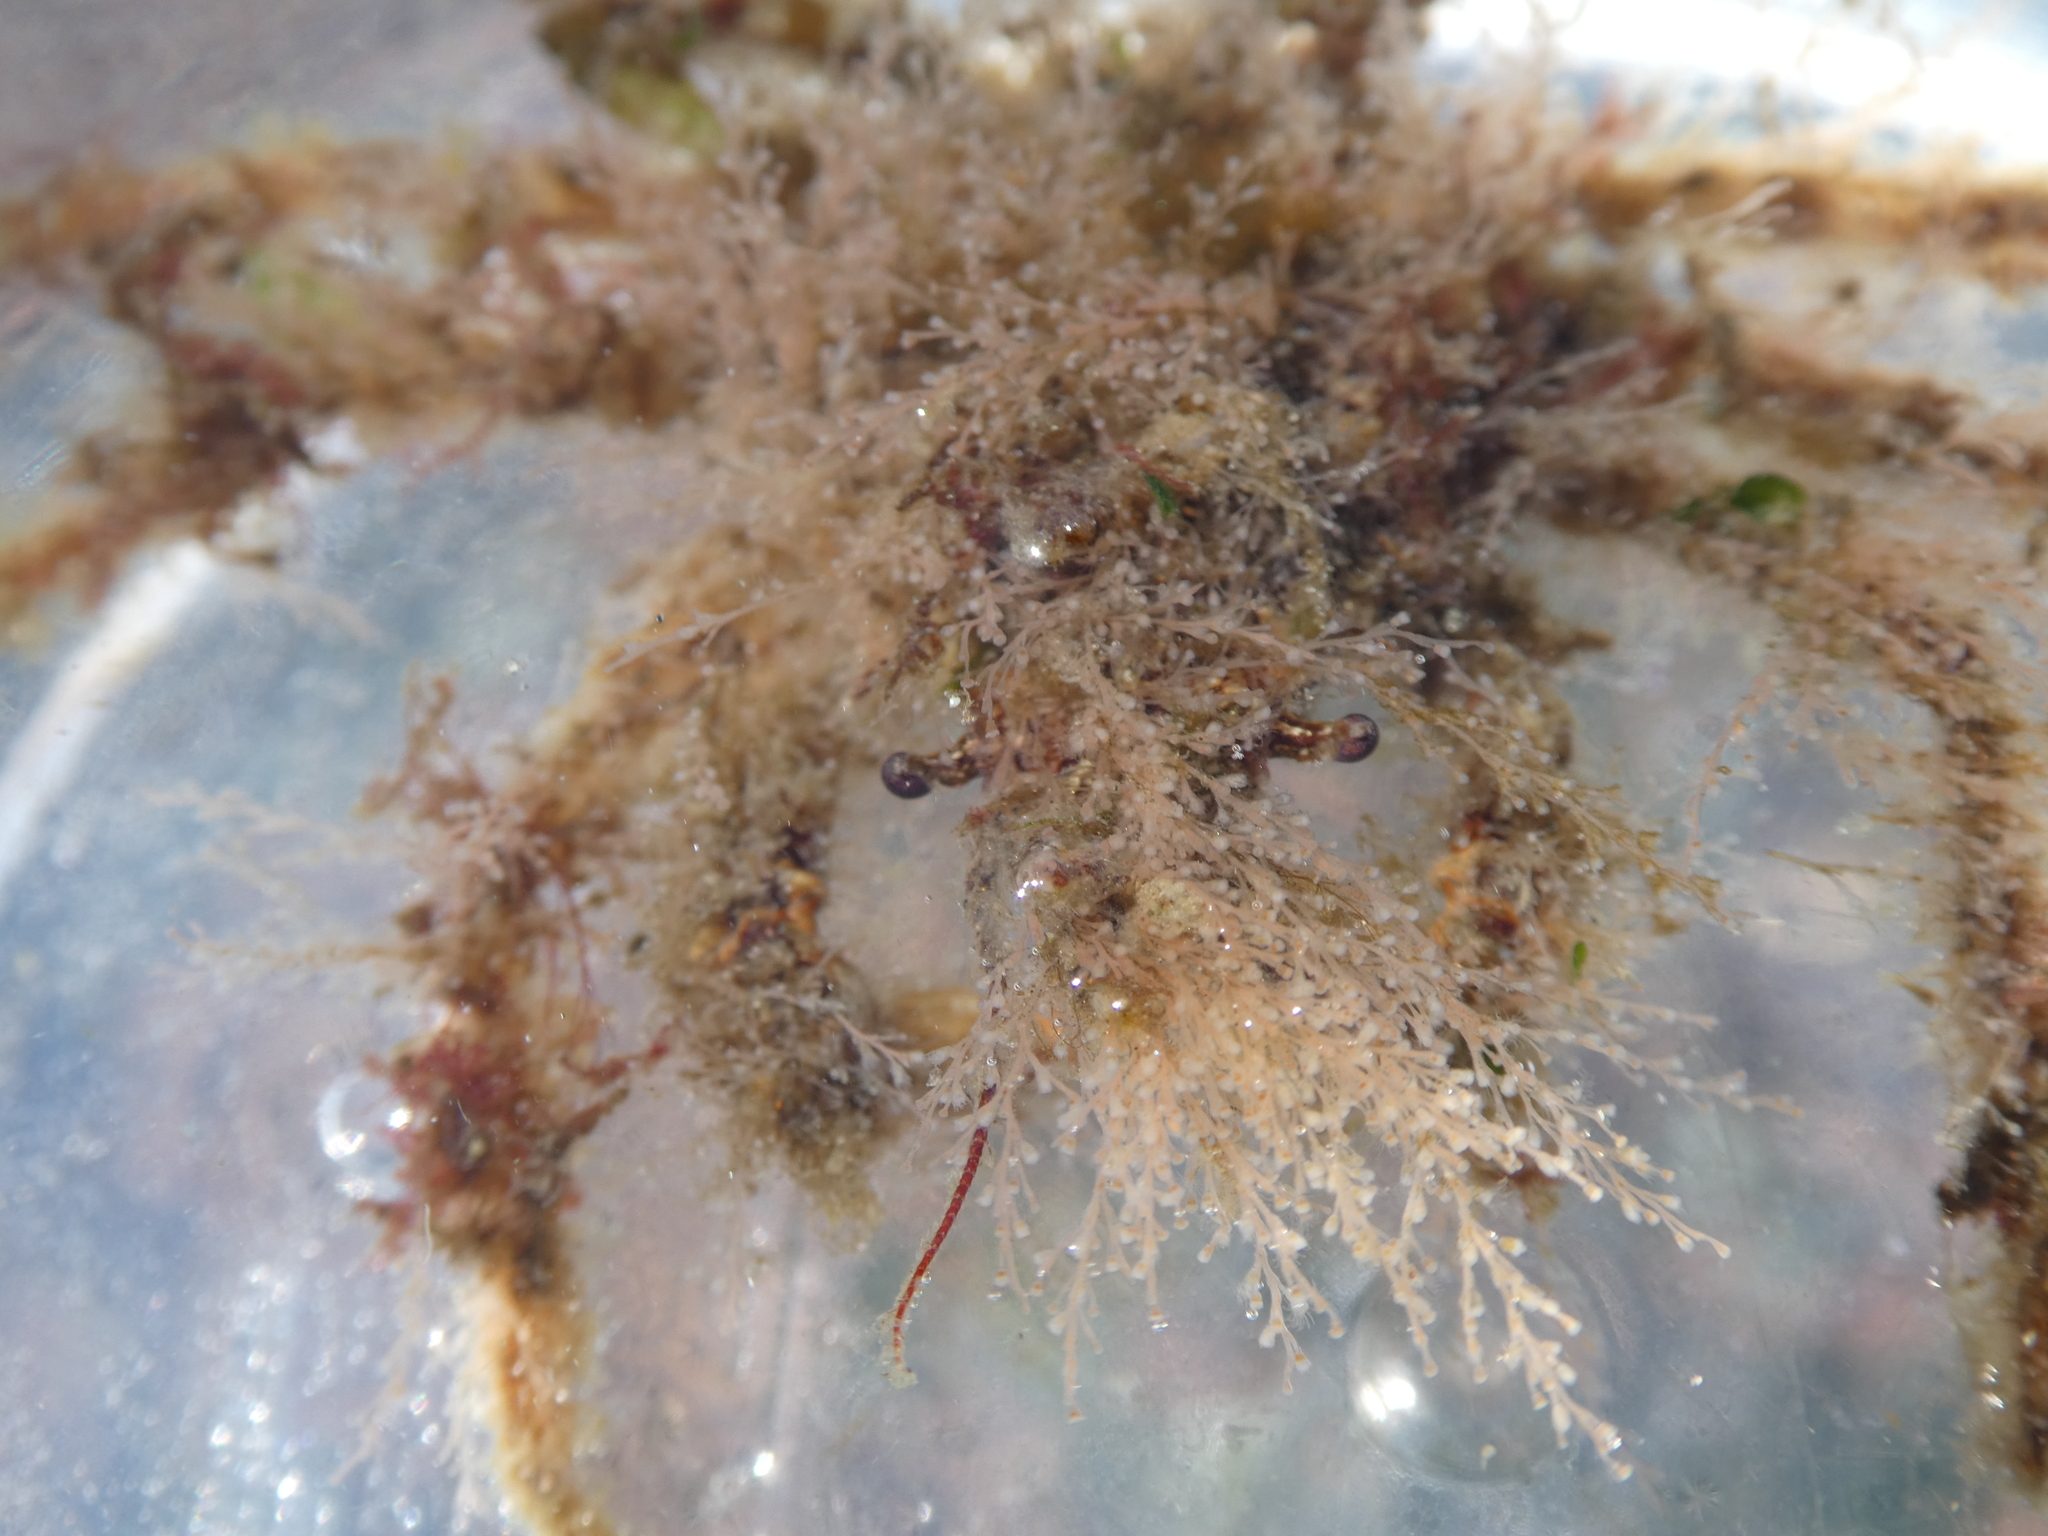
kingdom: Animalia
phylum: Arthropoda
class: Malacostraca
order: Decapoda
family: Oregoniidae
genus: Oregonia
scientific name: Oregonia gracilis
